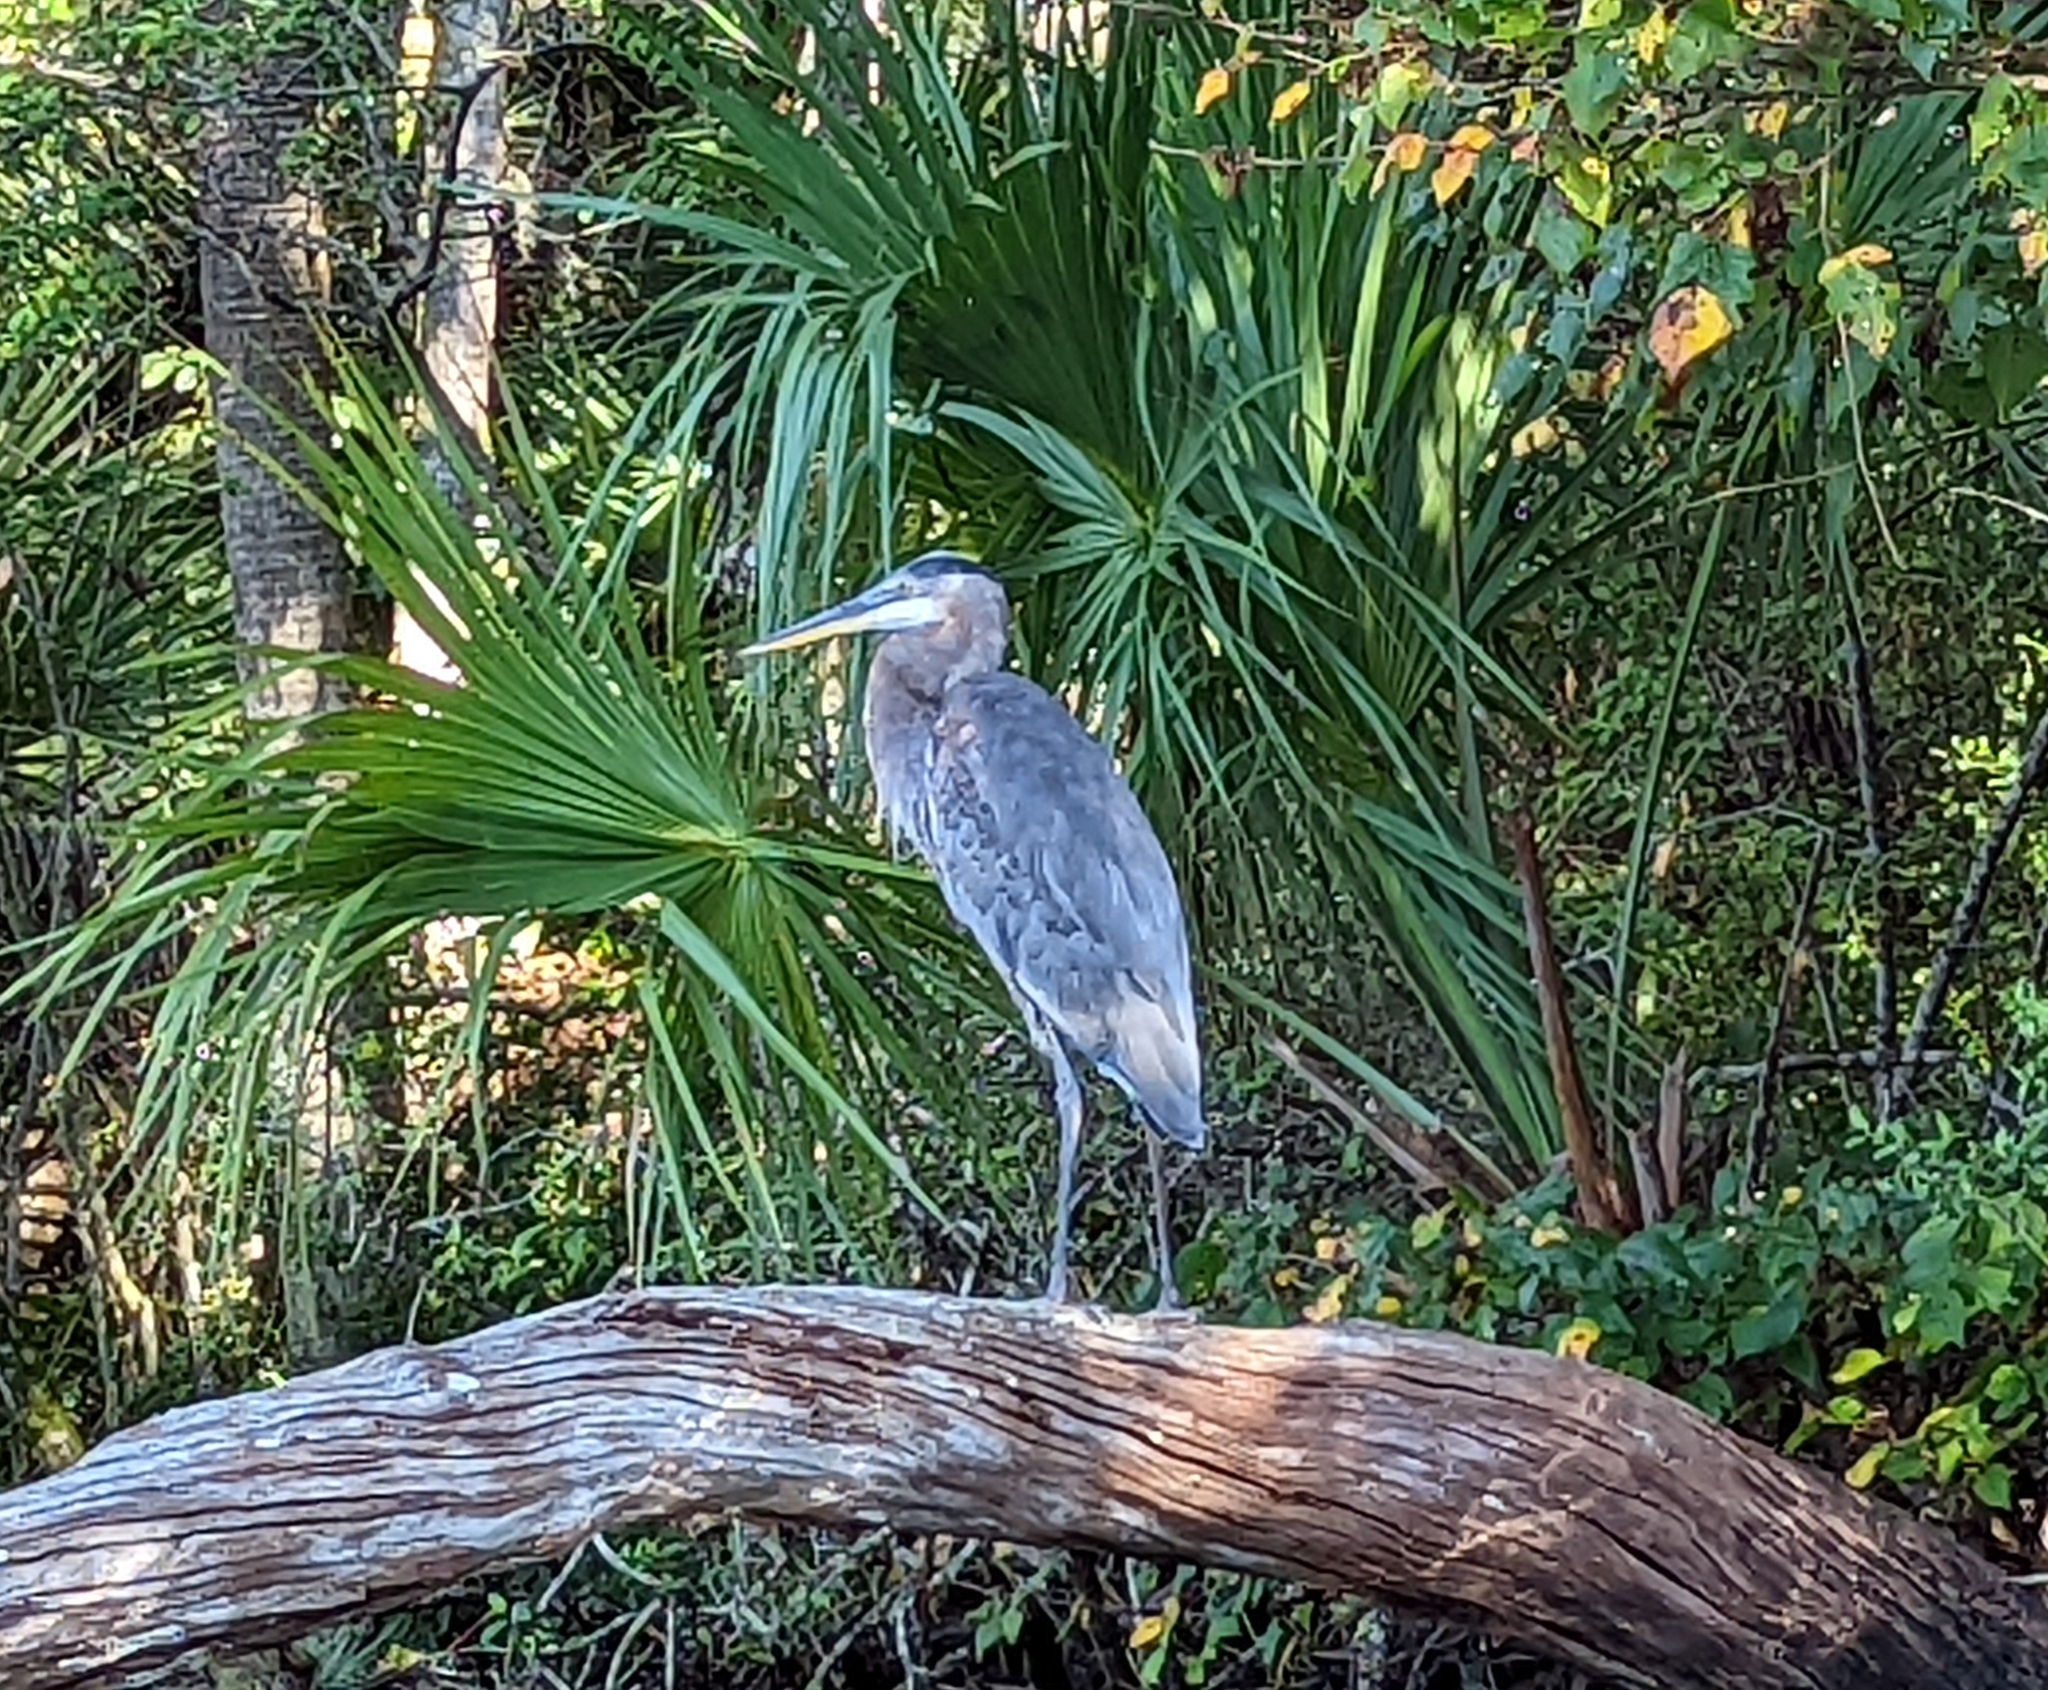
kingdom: Animalia
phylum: Chordata
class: Aves
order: Pelecaniformes
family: Ardeidae
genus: Ardea
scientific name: Ardea herodias
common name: Great blue heron
